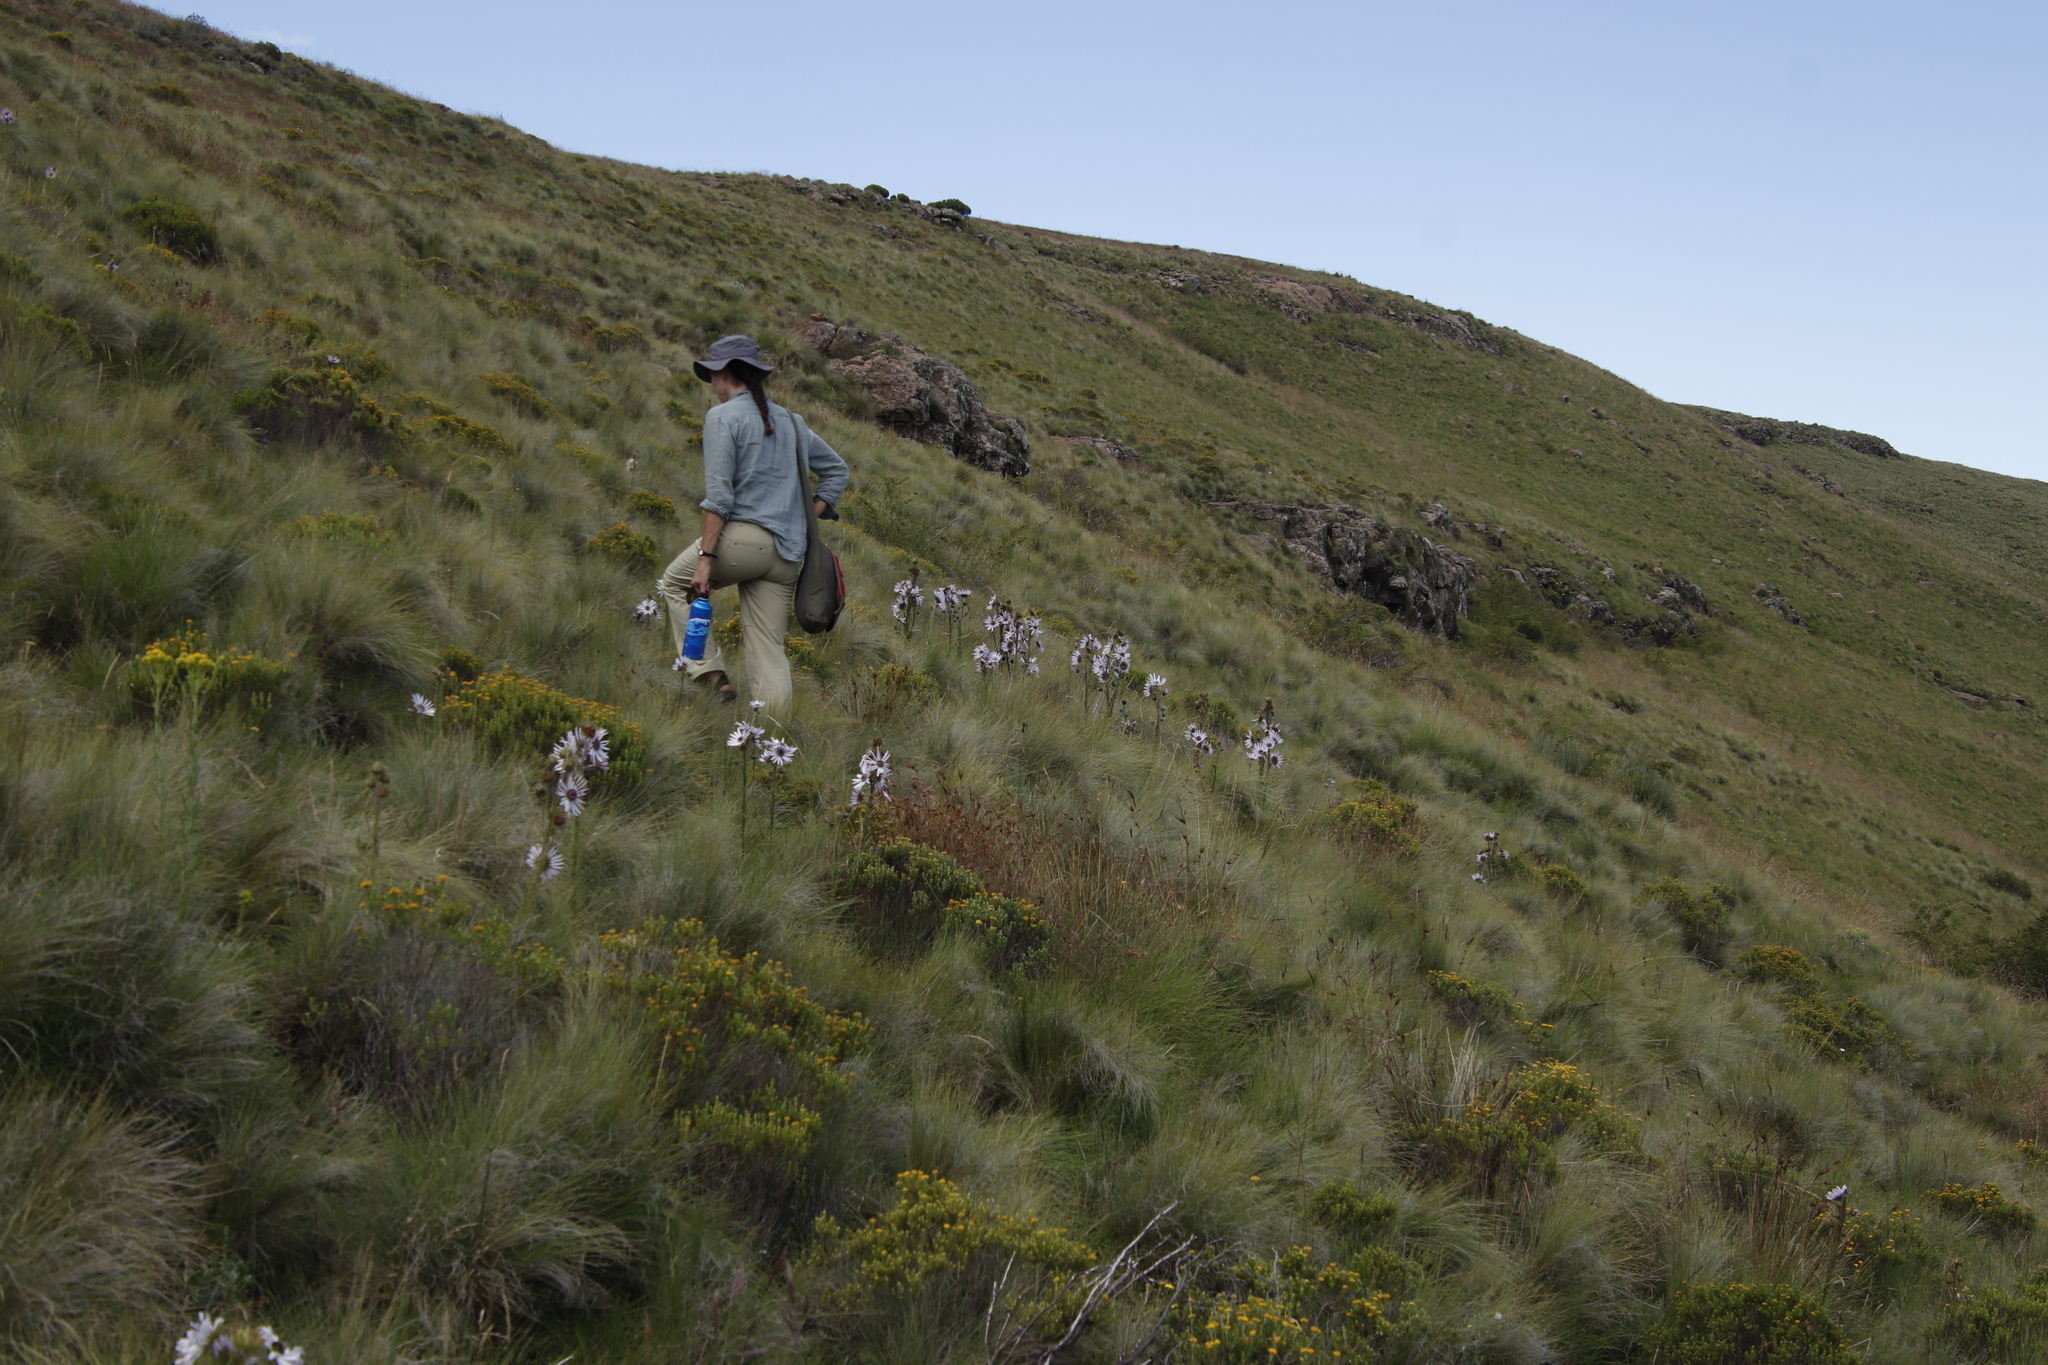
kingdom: Plantae
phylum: Tracheophyta
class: Magnoliopsida
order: Asterales
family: Asteraceae
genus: Berkheya
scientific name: Berkheya purpurea
